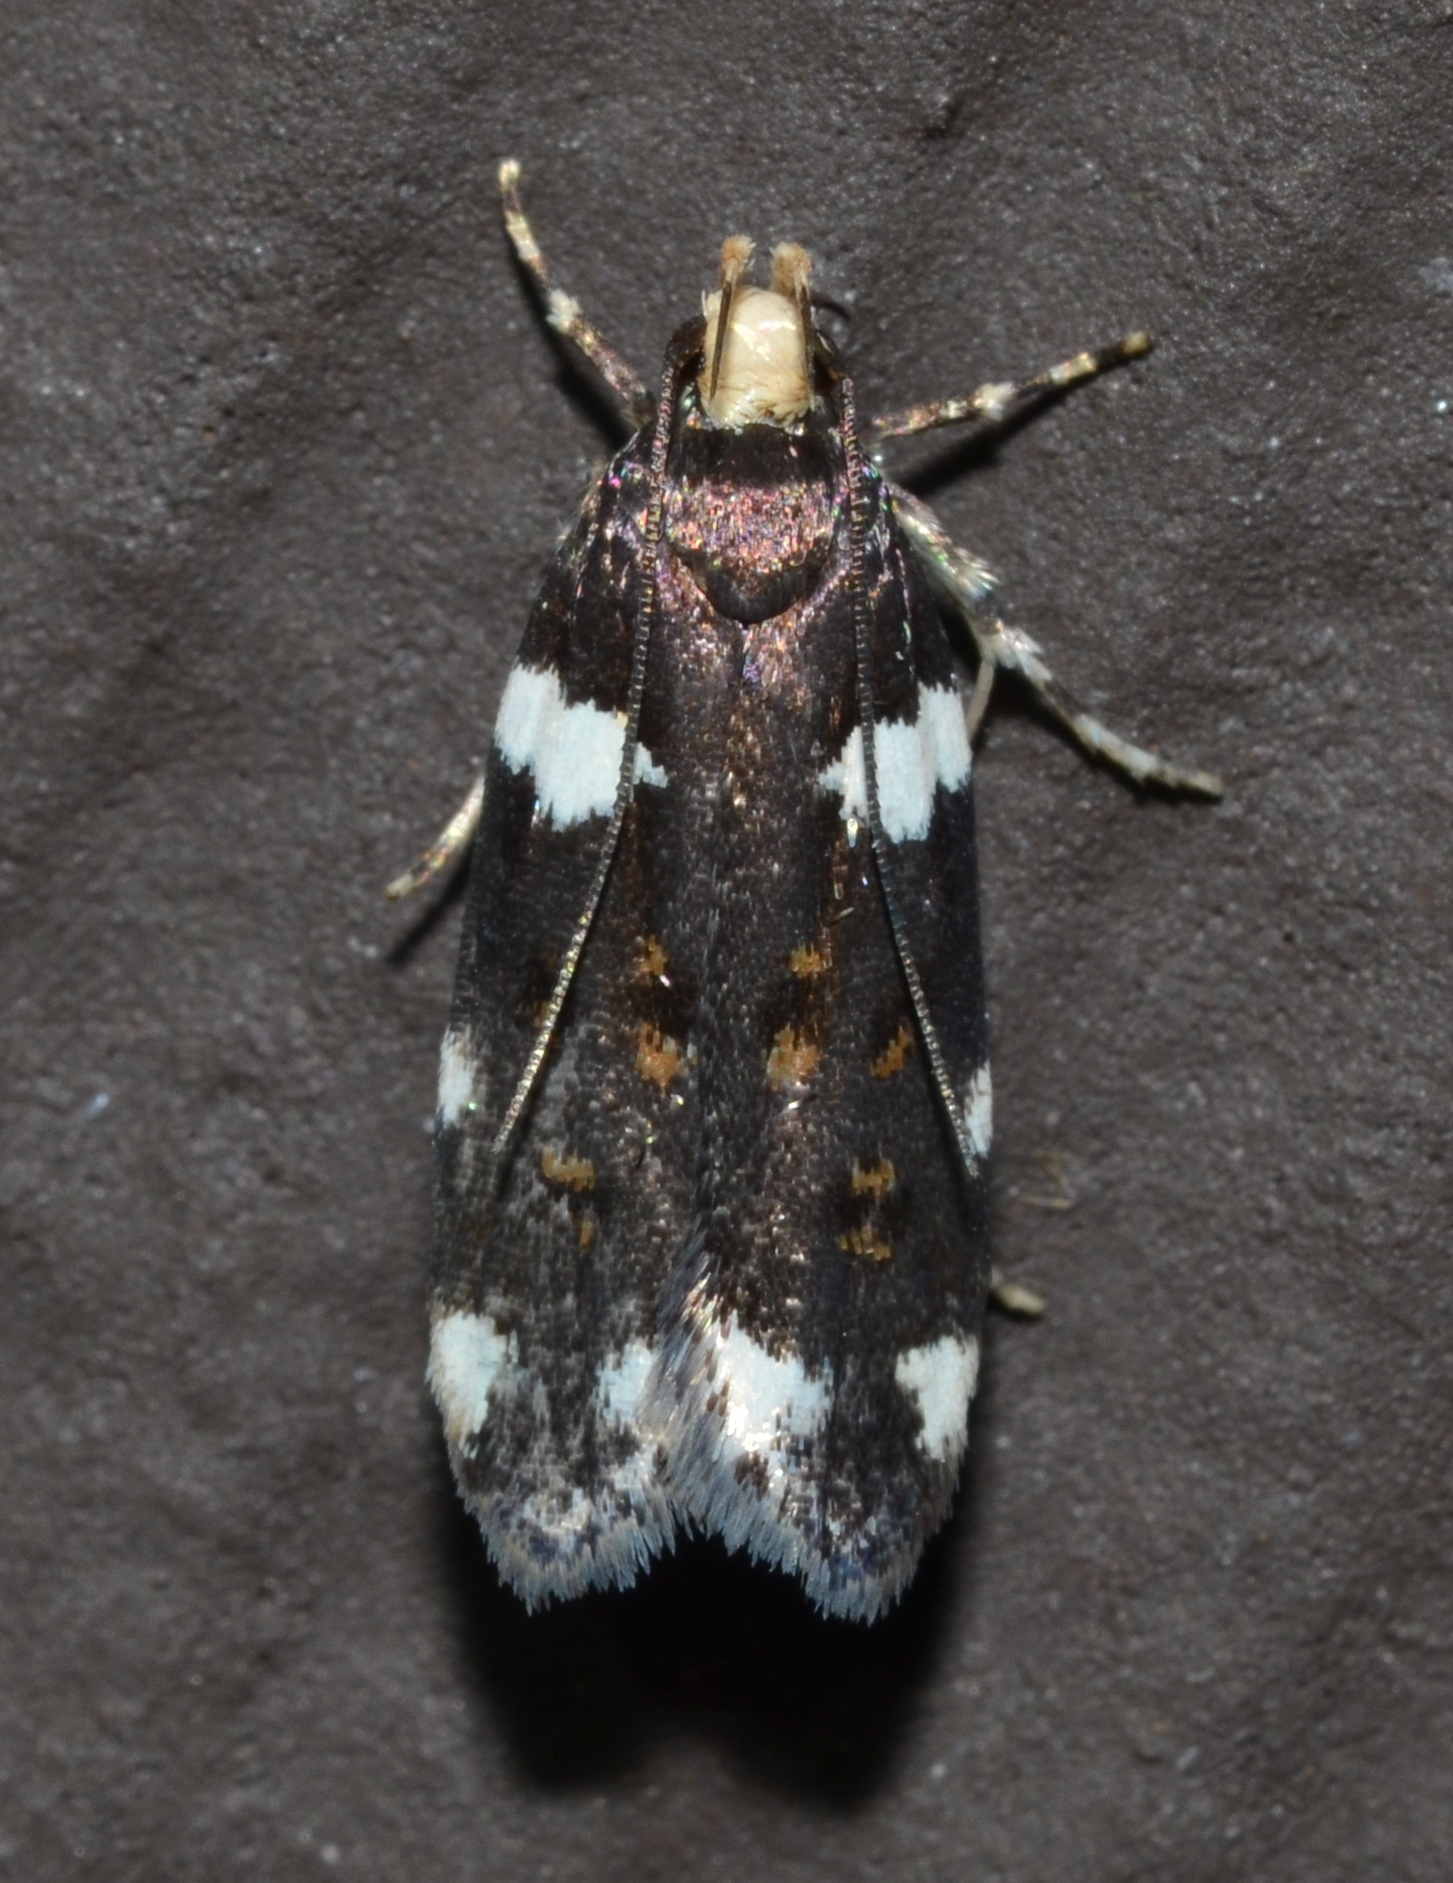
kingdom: Animalia
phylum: Arthropoda
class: Insecta
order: Lepidoptera
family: Gelechiidae
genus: Fascista
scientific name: Fascista cercerisella
